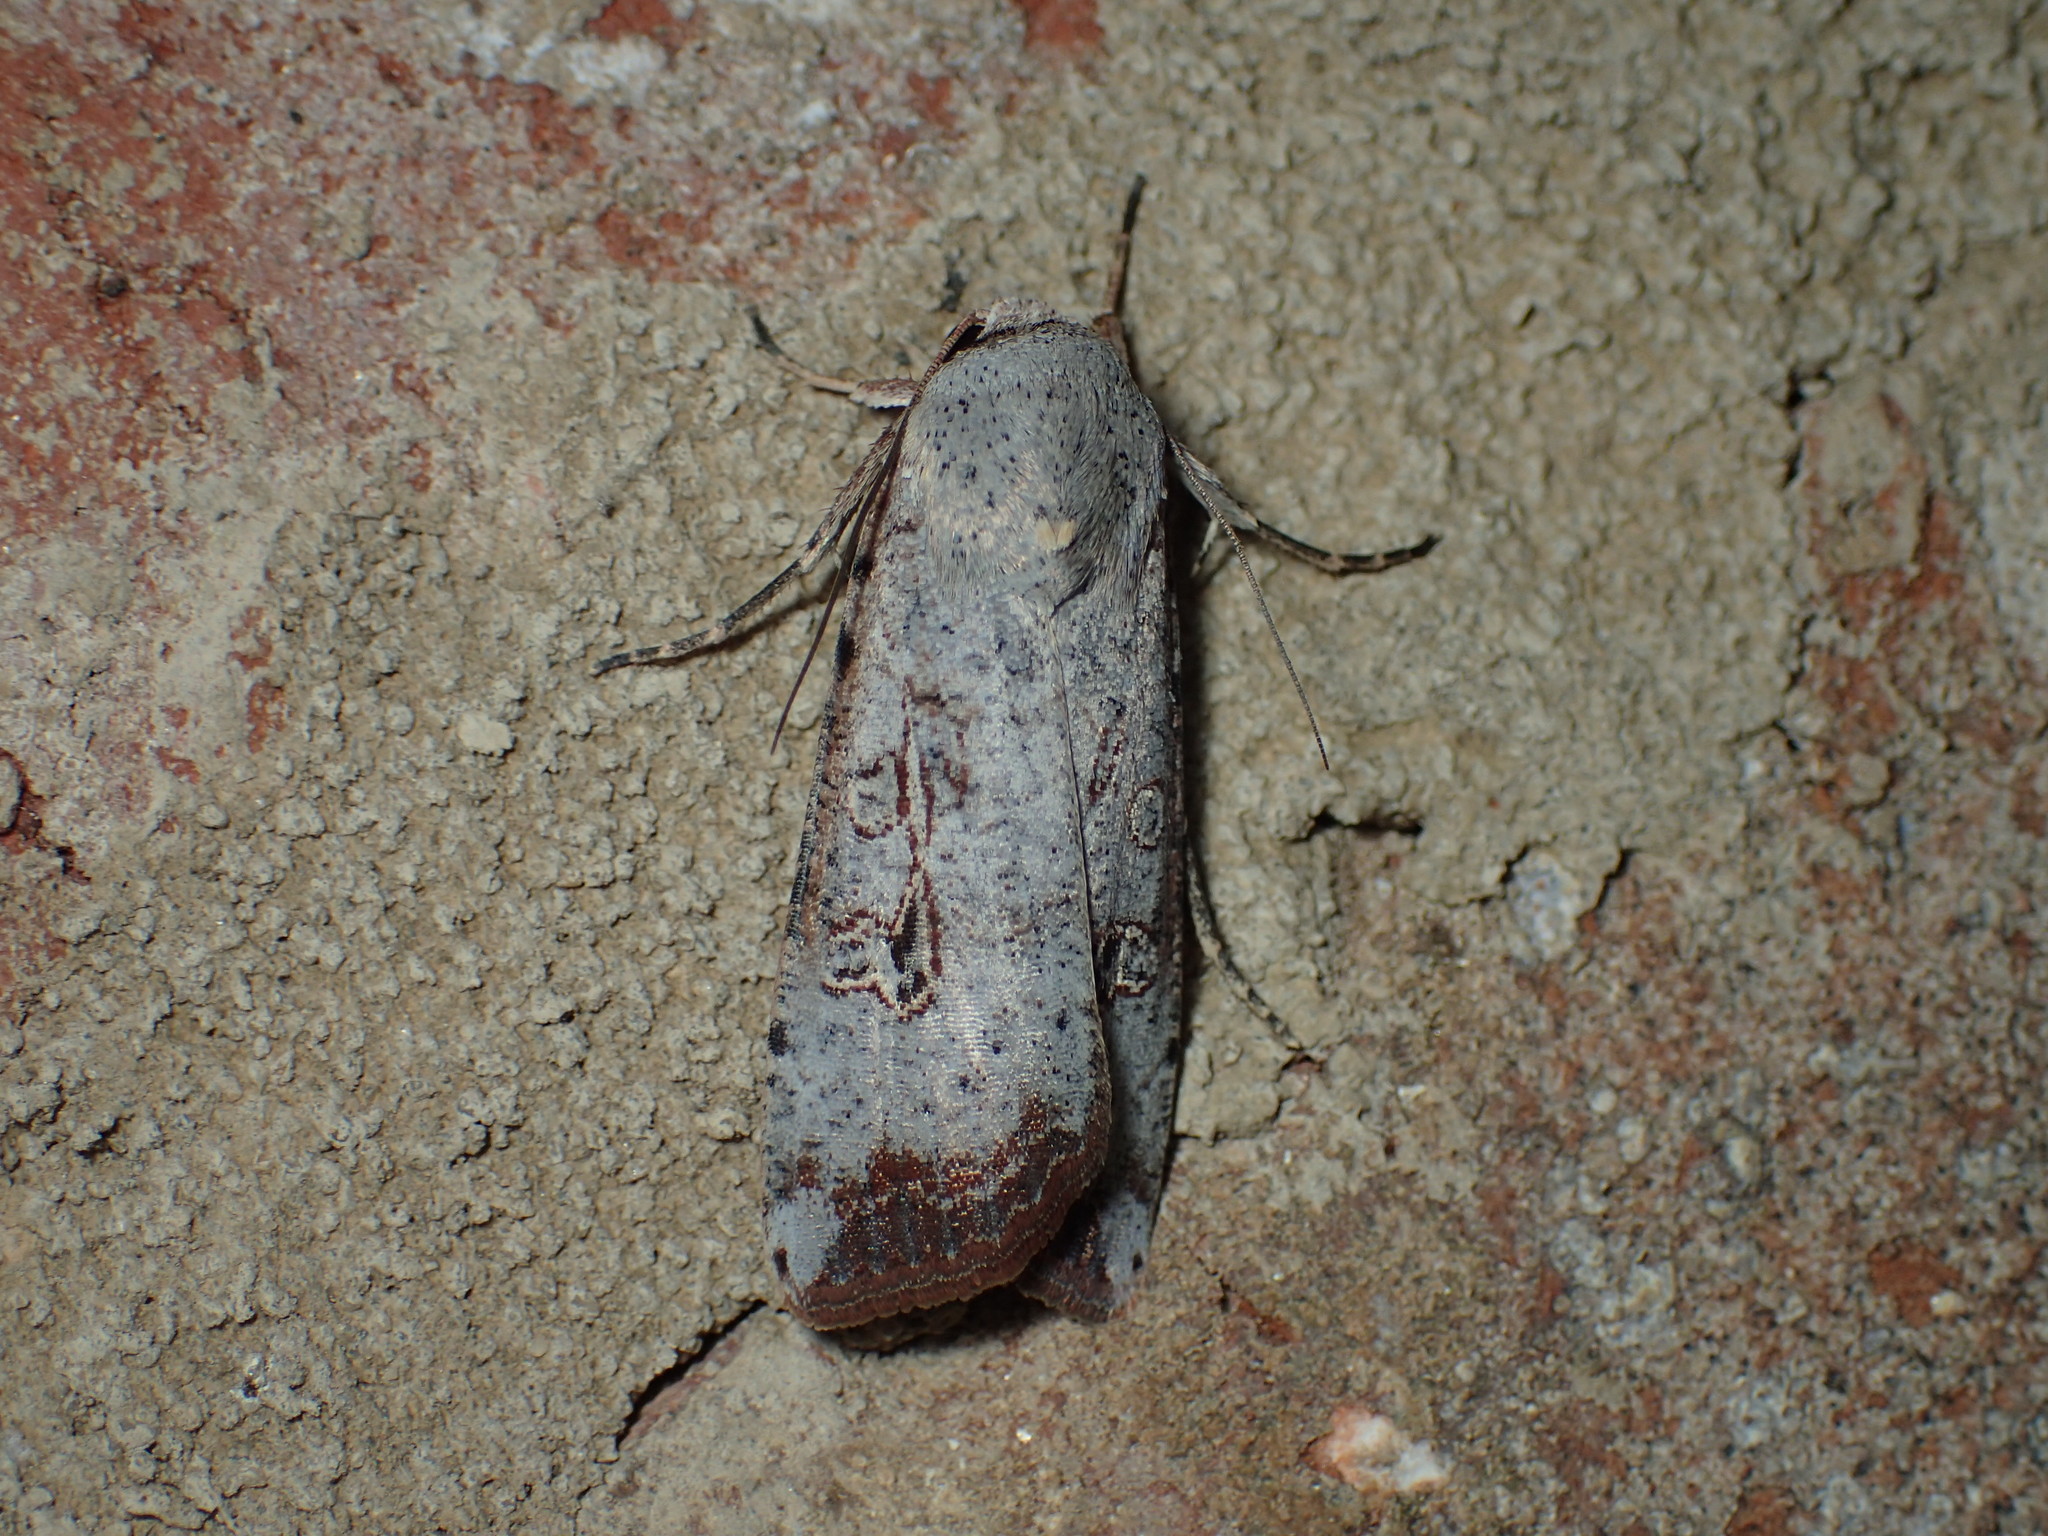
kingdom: Animalia
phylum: Arthropoda
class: Insecta
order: Lepidoptera
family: Noctuidae
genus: Anicla
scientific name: Anicla infecta
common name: Green cutworm
